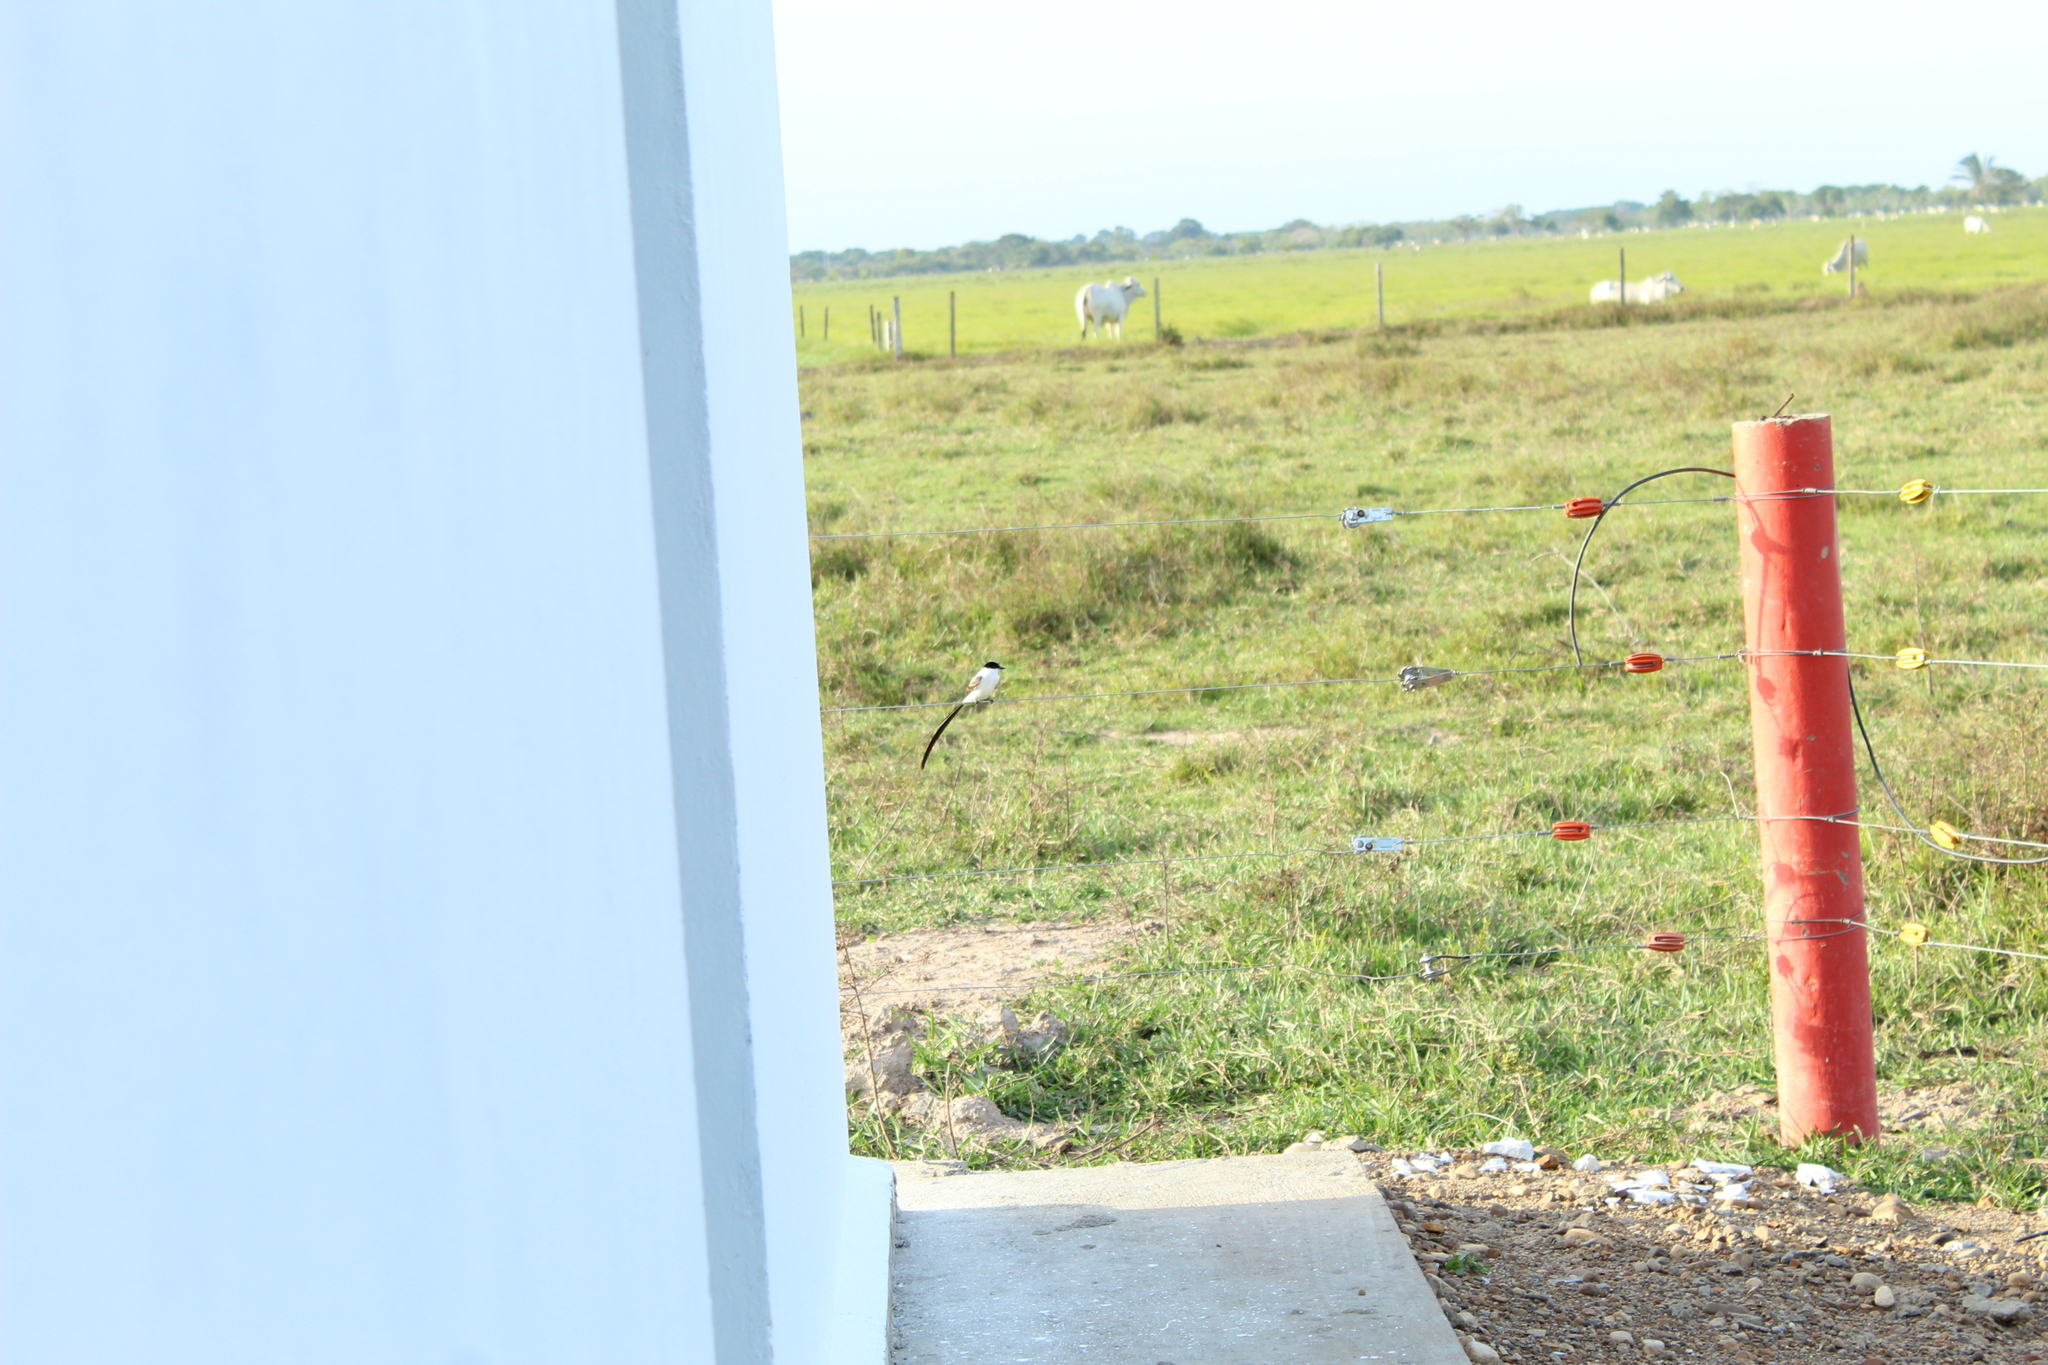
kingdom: Animalia
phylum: Chordata
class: Aves
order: Passeriformes
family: Tyrannidae
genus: Tyrannus
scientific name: Tyrannus savana
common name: Fork-tailed flycatcher
